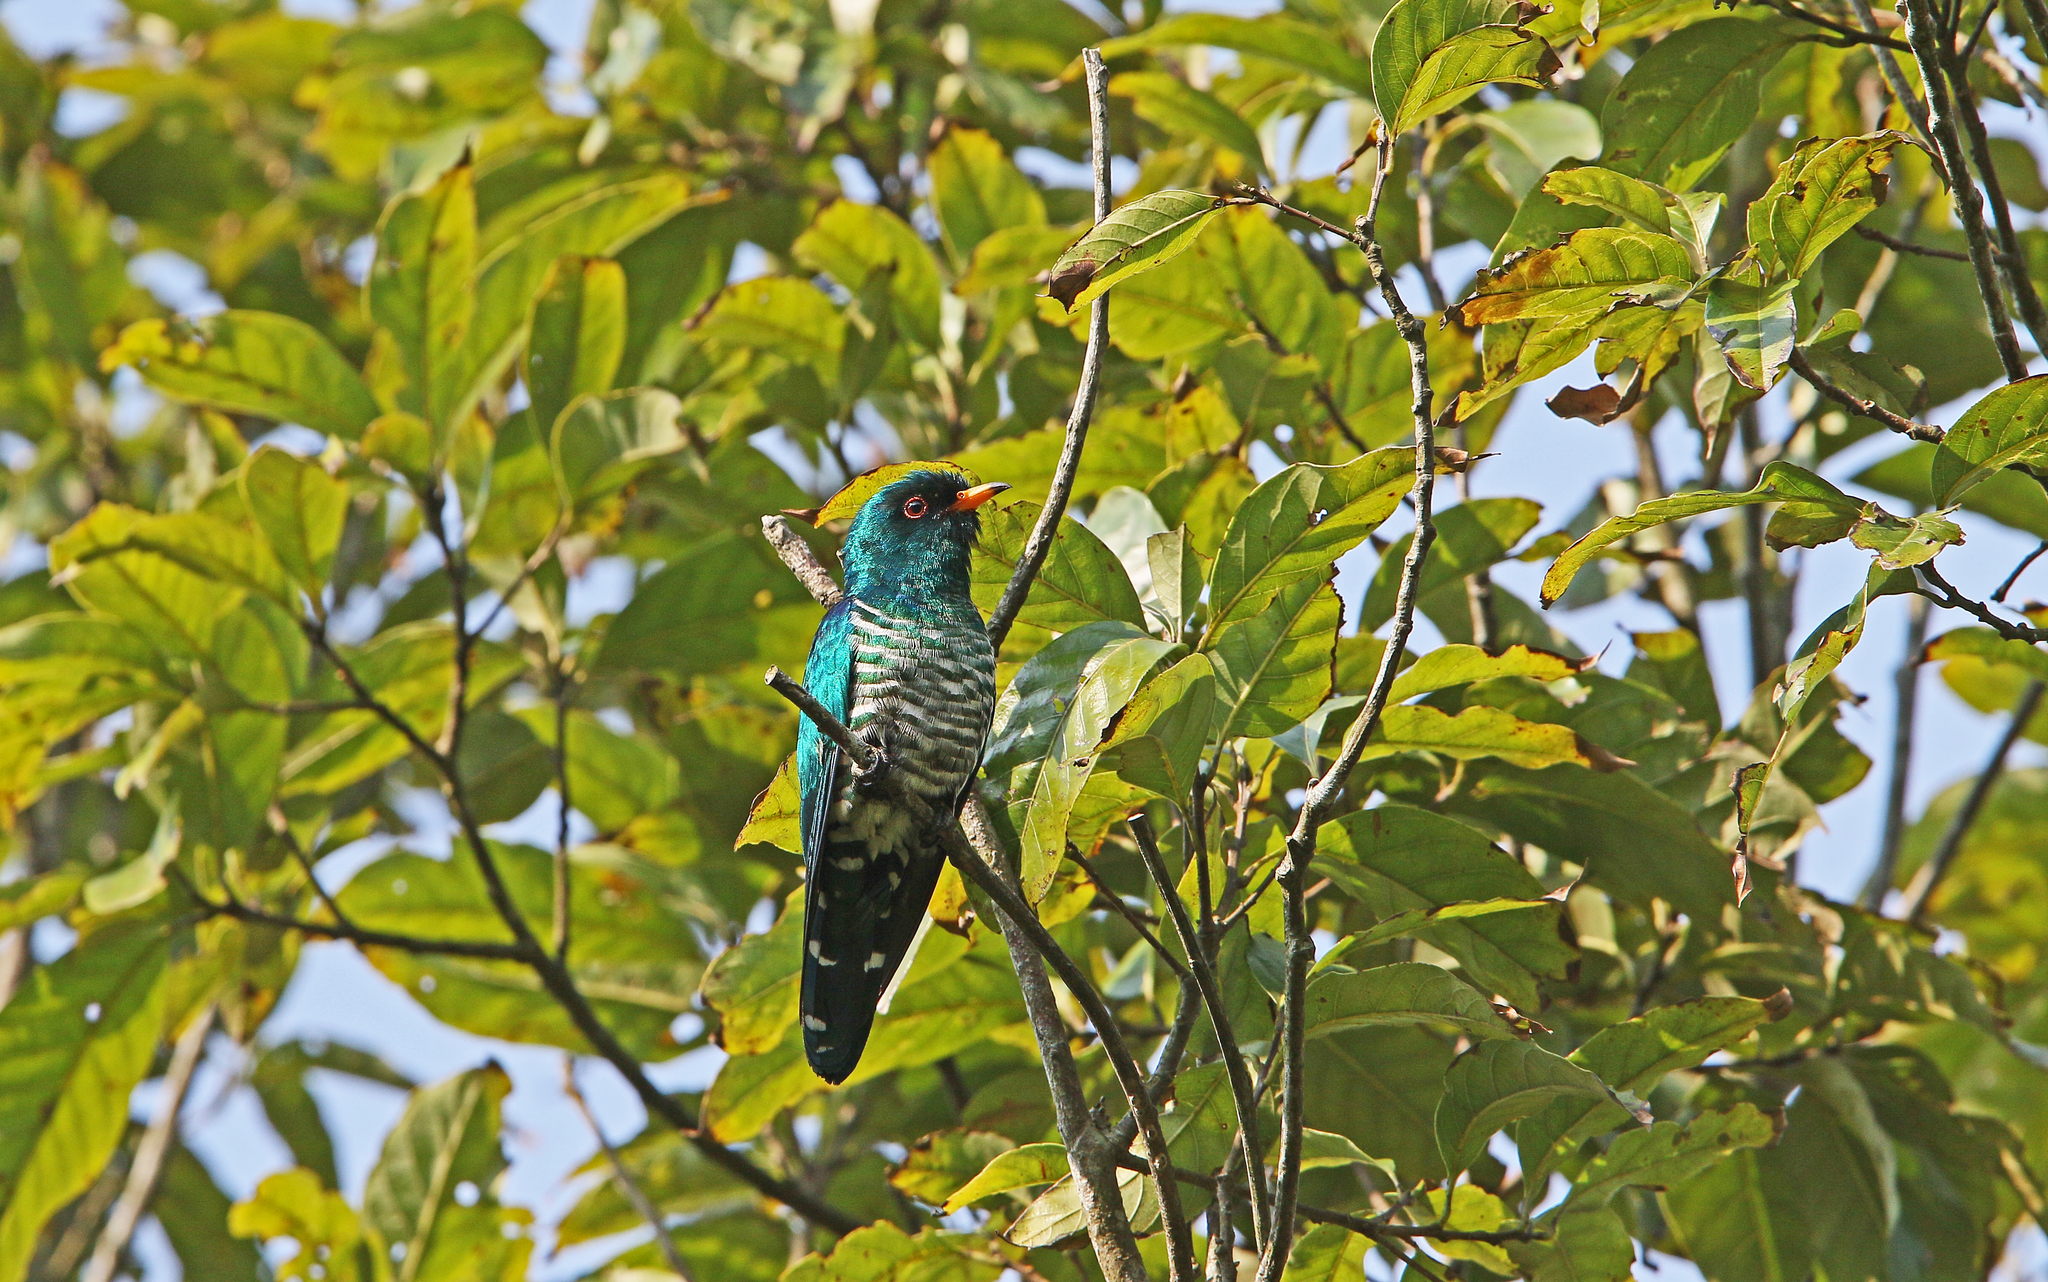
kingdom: Animalia
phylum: Chordata
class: Aves
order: Cuculiformes
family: Cuculidae
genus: Chrysococcyx
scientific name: Chrysococcyx maculatus
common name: Asian emerald cuckoo
